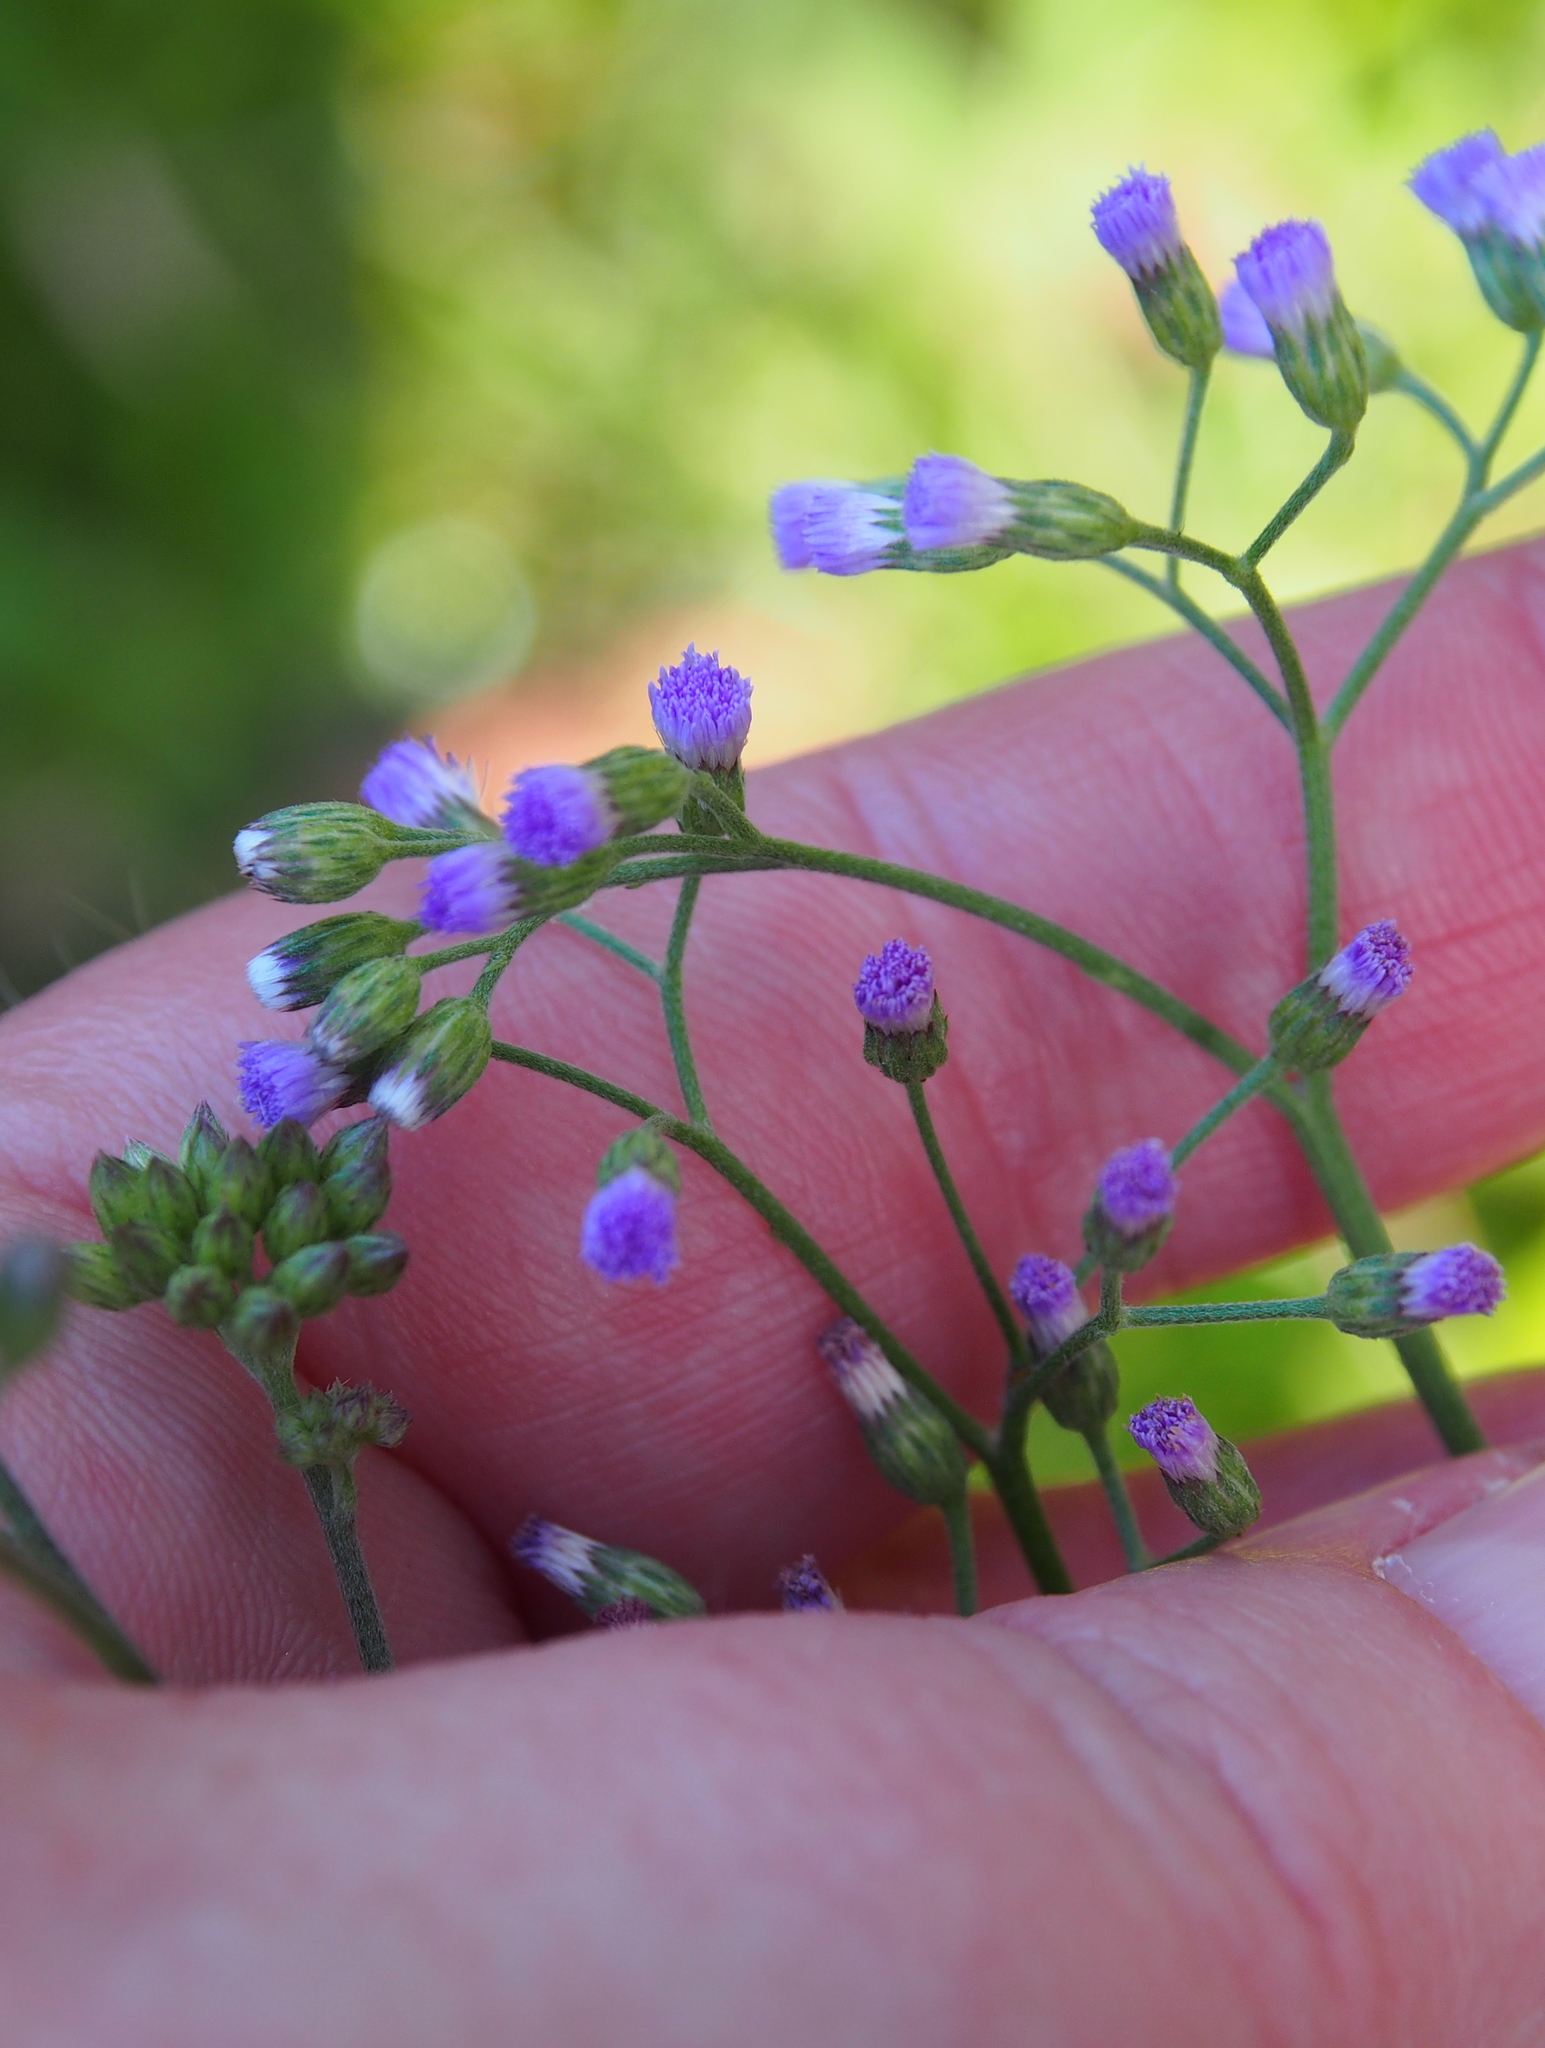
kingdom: Plantae
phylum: Tracheophyta
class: Magnoliopsida
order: Asterales
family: Asteraceae
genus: Cyanthillium
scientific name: Cyanthillium cinereum
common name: Little ironweed
